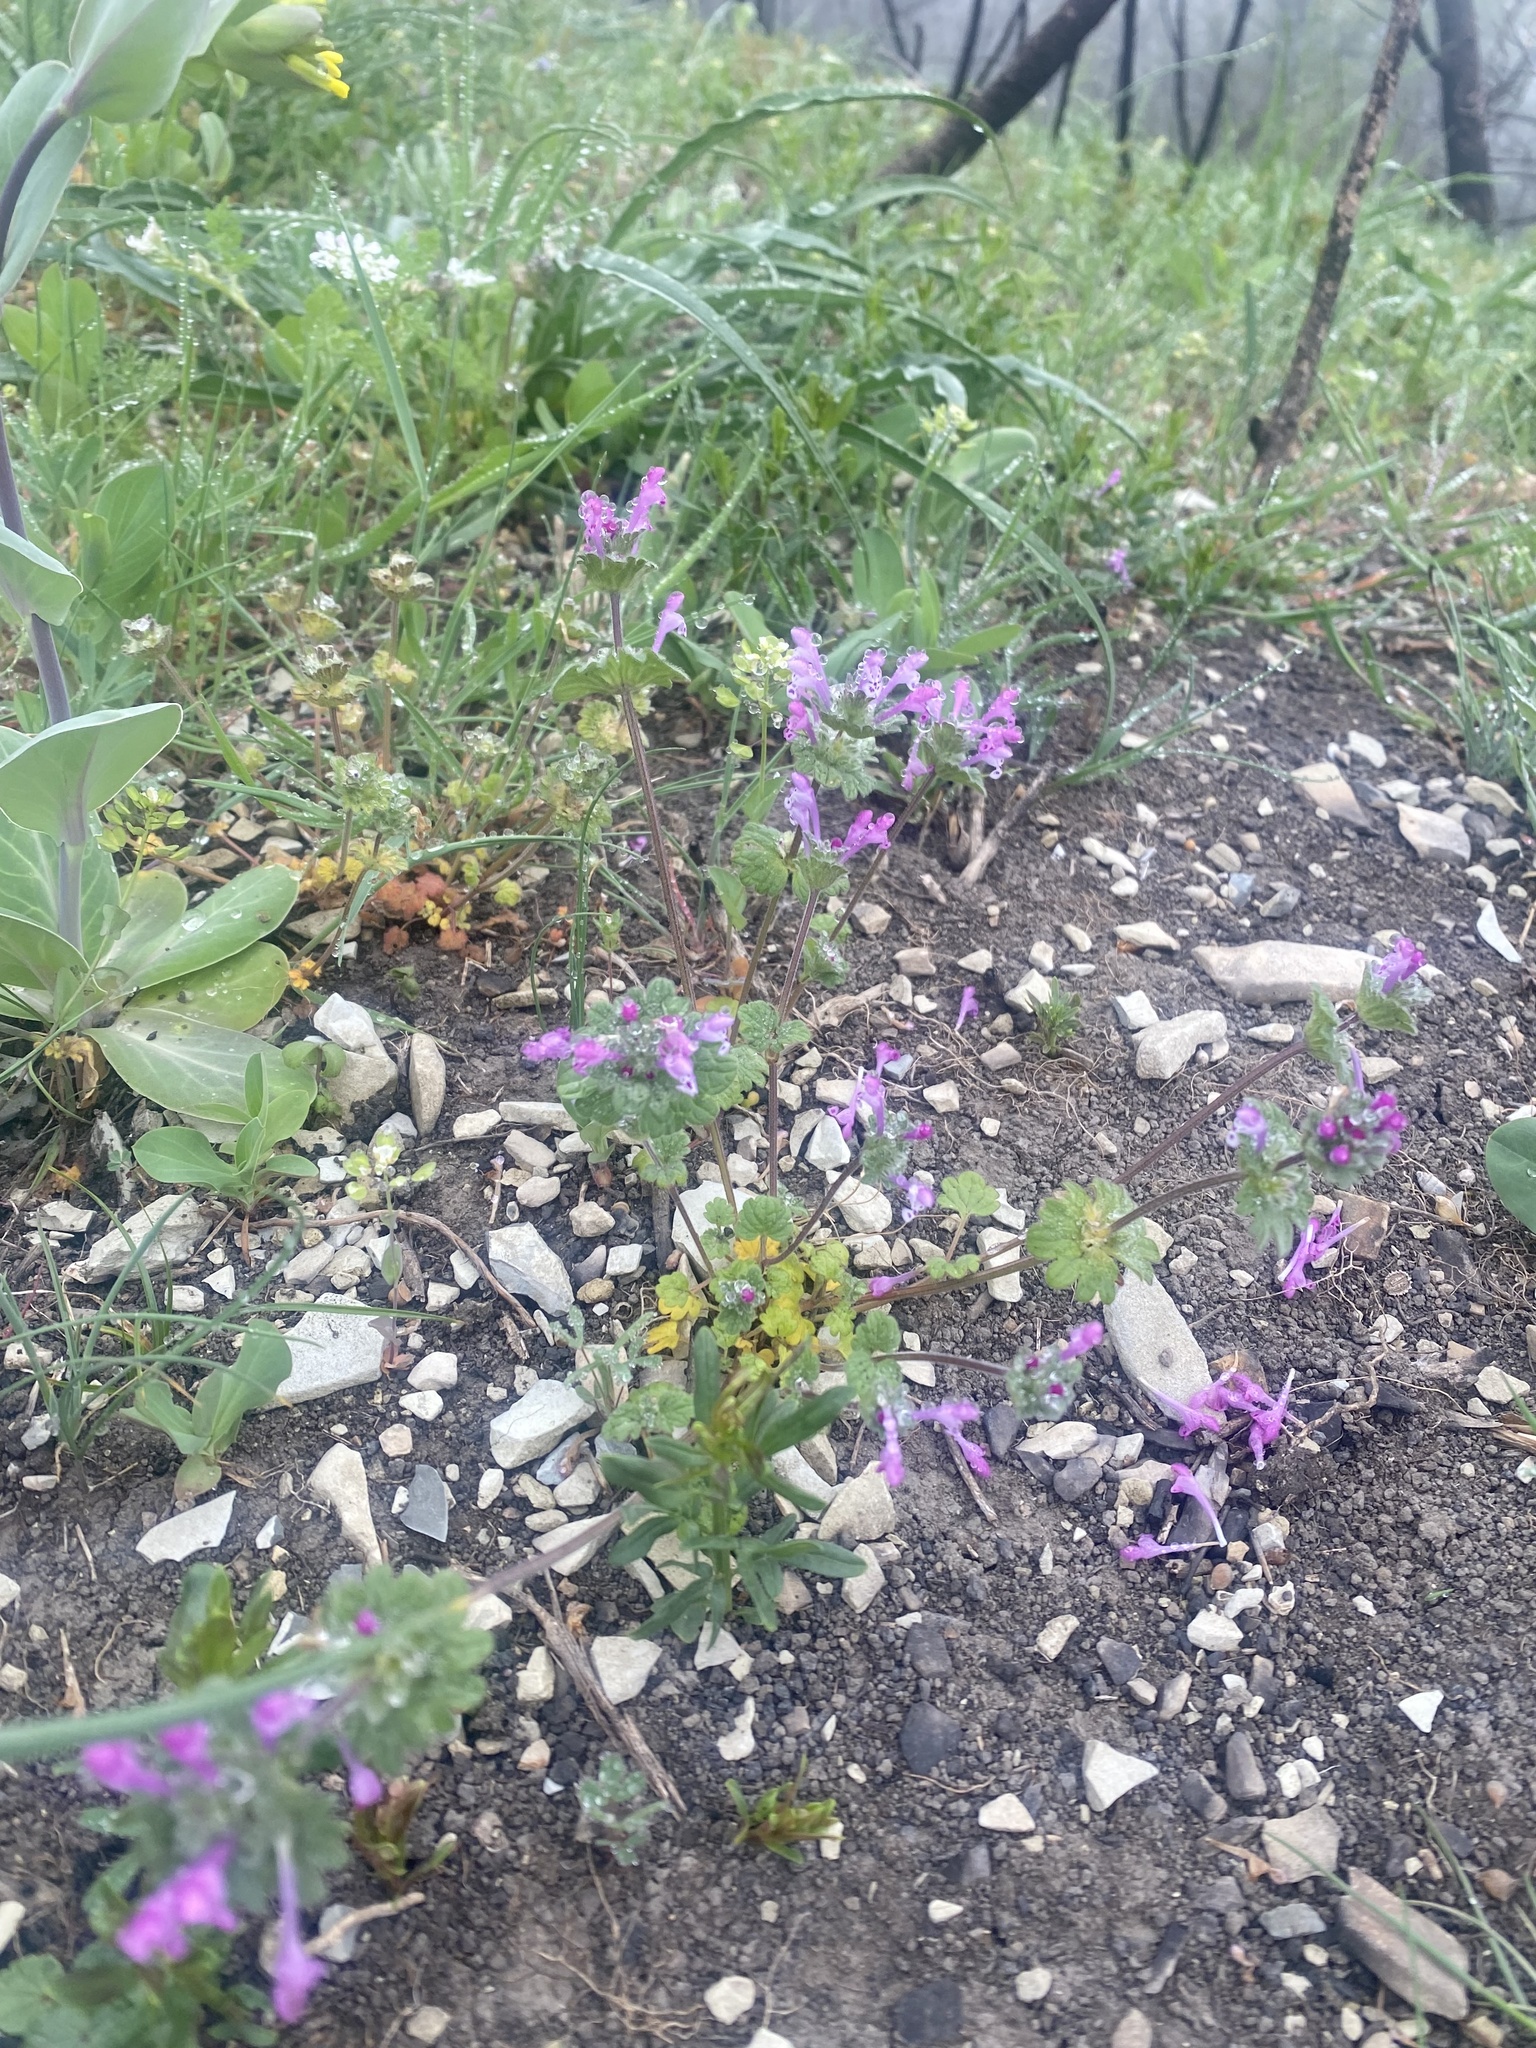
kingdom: Plantae
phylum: Tracheophyta
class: Magnoliopsida
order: Lamiales
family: Lamiaceae
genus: Lamium
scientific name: Lamium amplexicaule
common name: Henbit dead-nettle
